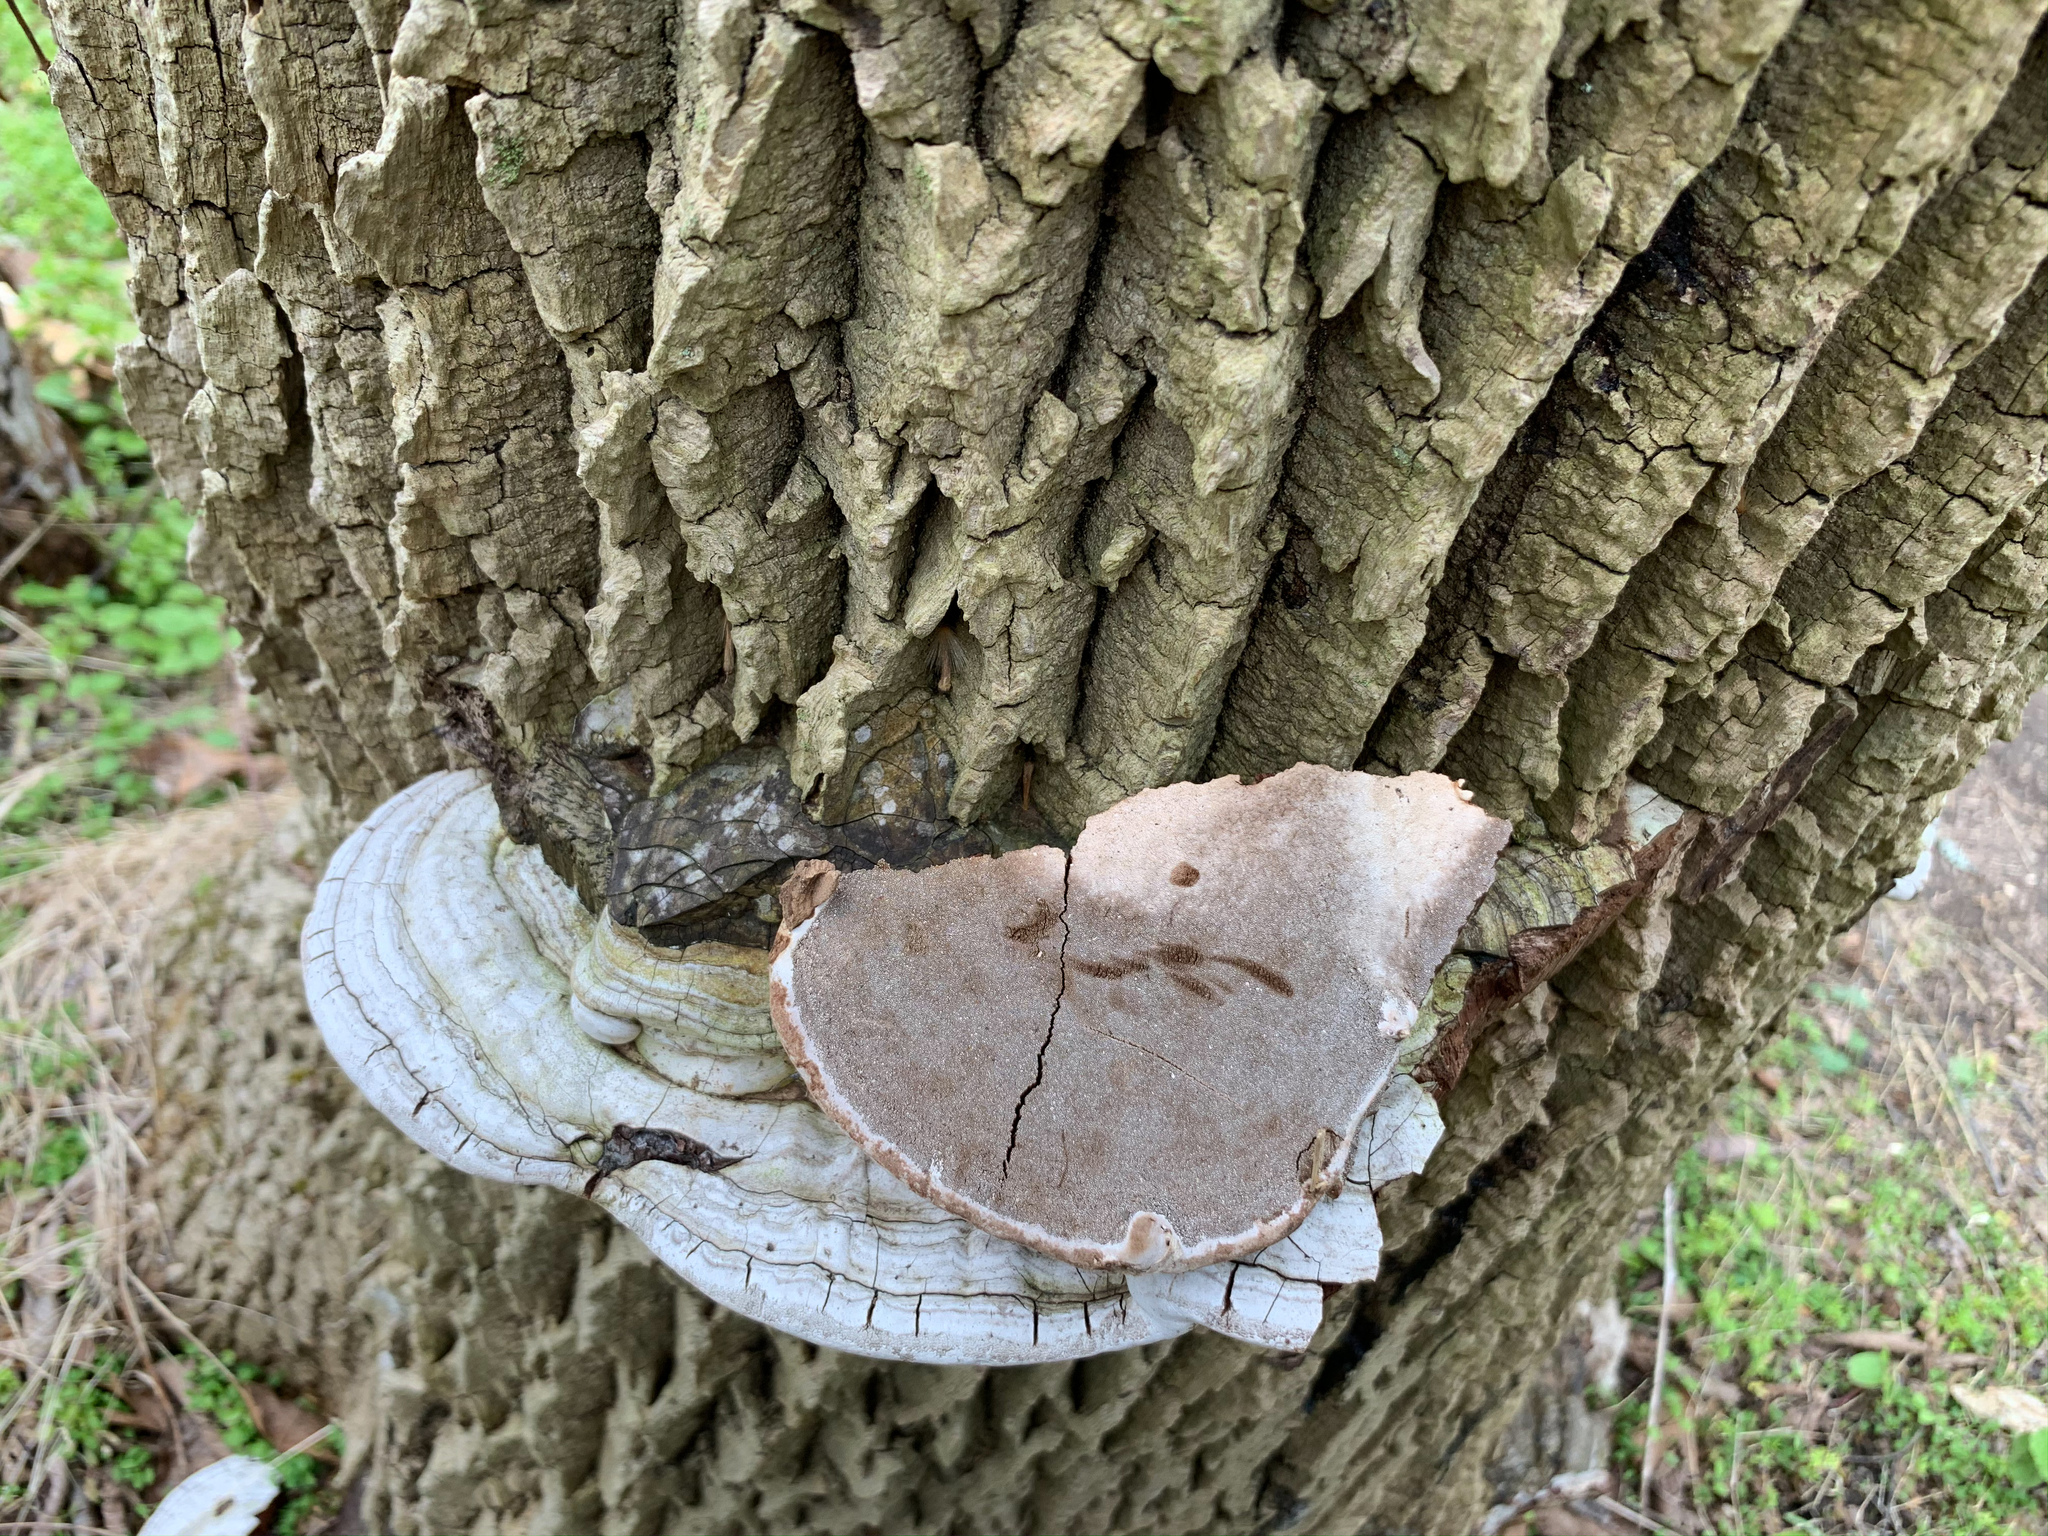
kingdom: Fungi
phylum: Basidiomycota
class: Agaricomycetes
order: Polyporales
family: Polyporaceae
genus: Ganoderma
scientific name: Ganoderma applanatum
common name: Artist's bracket
